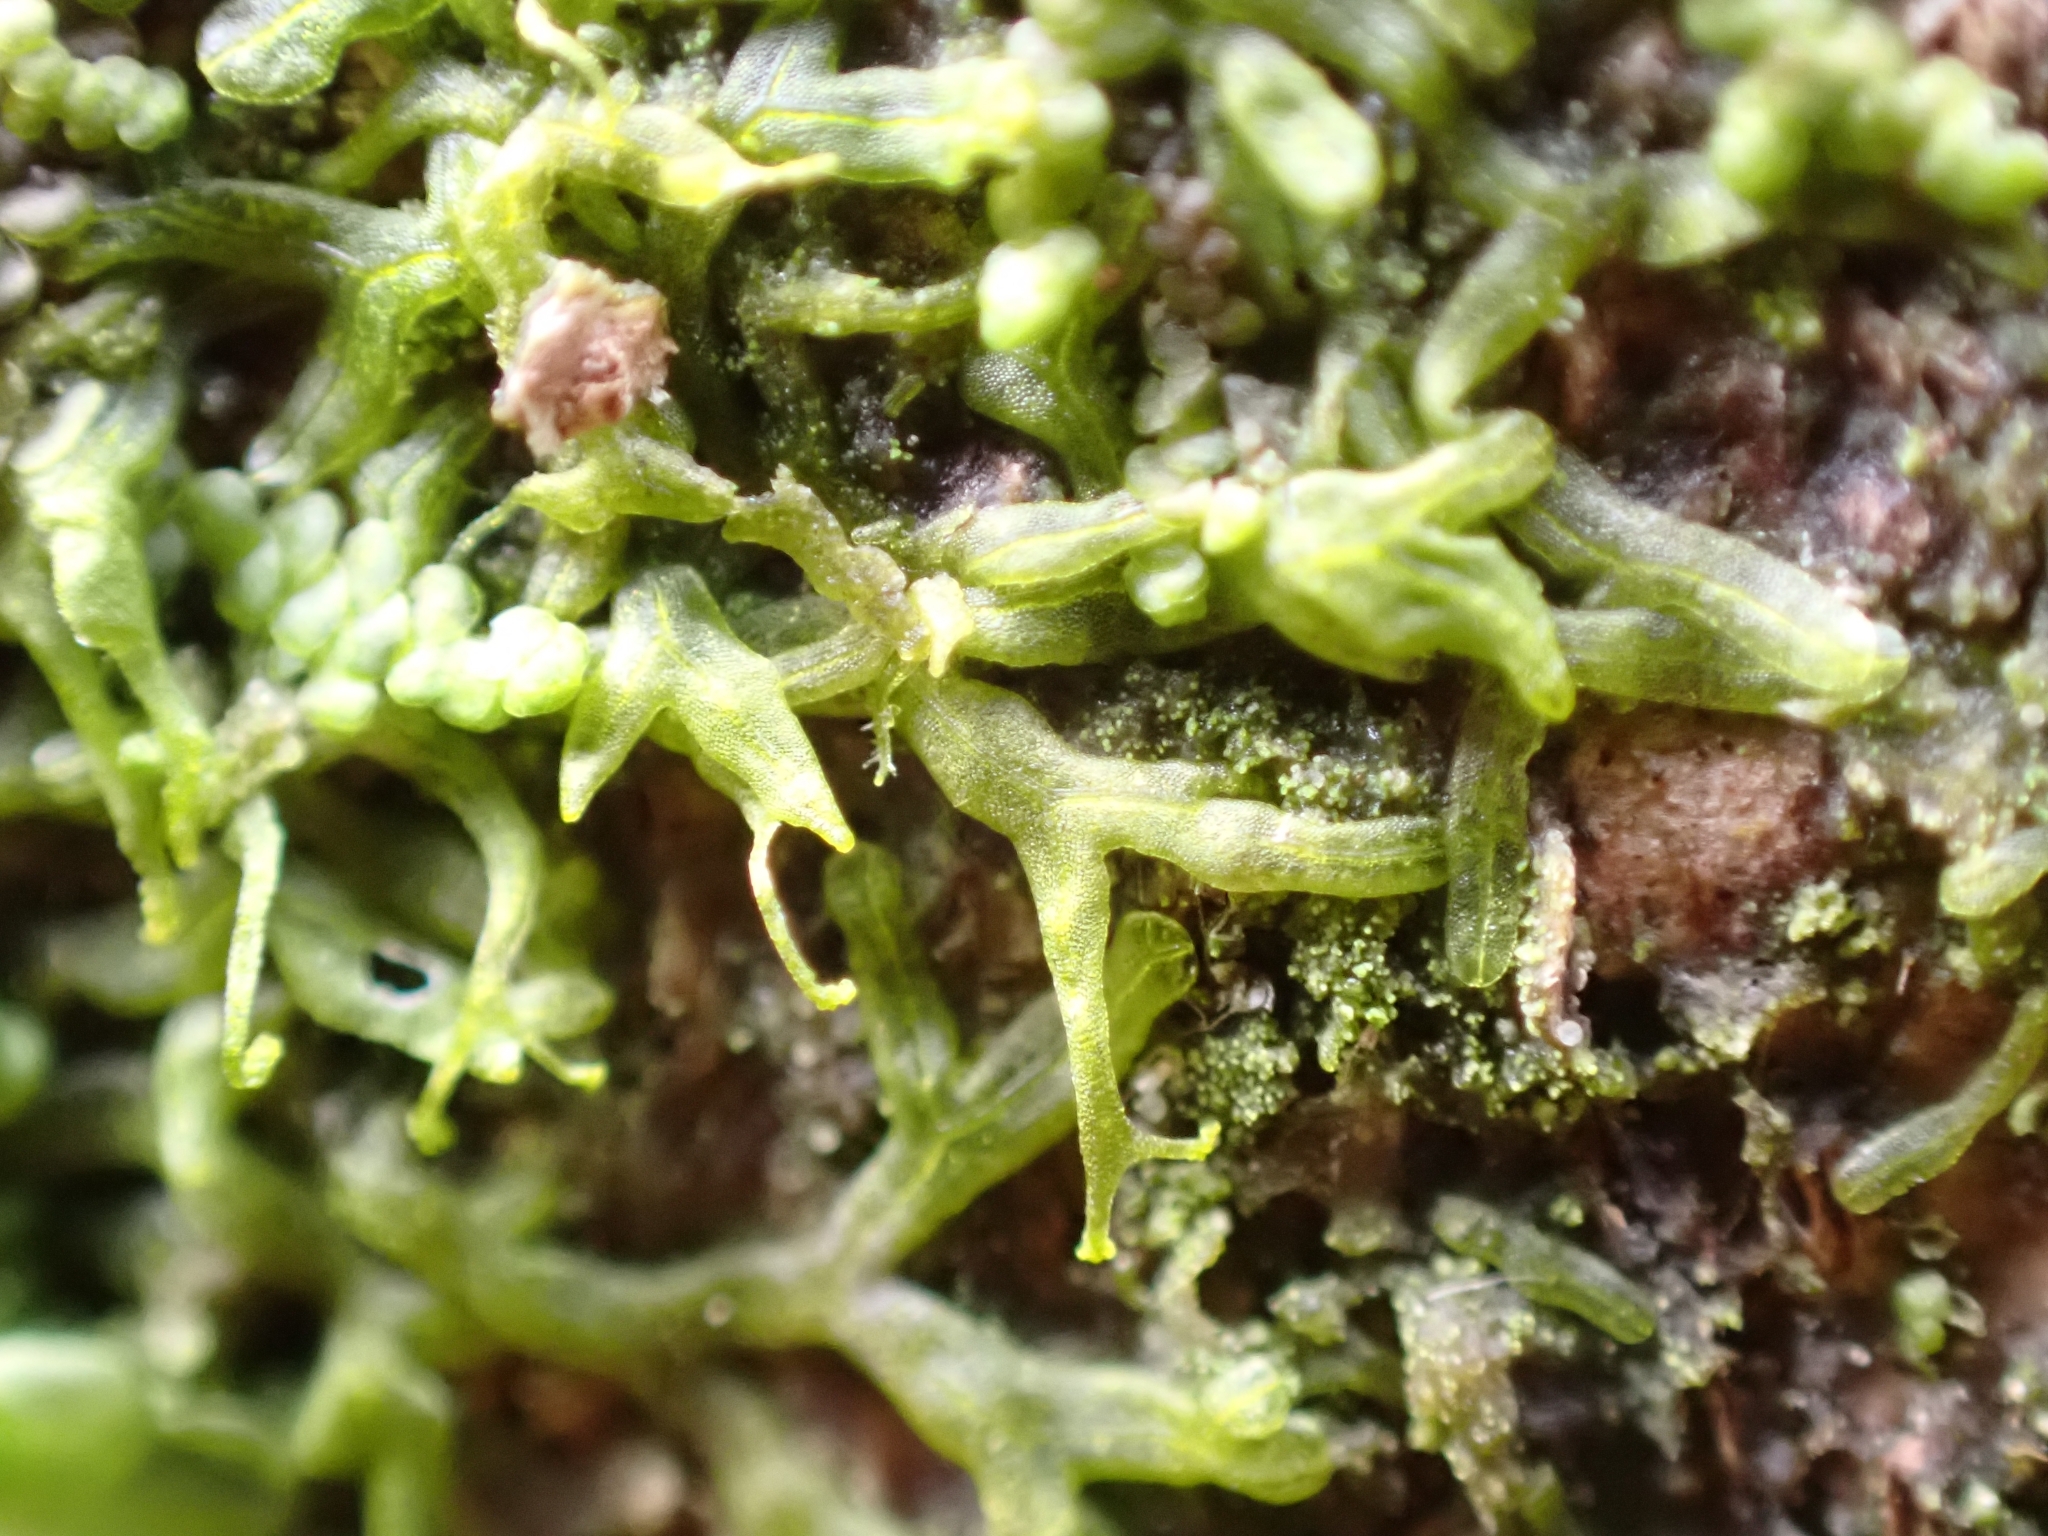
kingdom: Plantae
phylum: Marchantiophyta
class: Jungermanniopsida
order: Metzgeriales
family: Metzgeriaceae
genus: Metzgeria
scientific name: Metzgeria violacea
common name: Blueish veilwort
